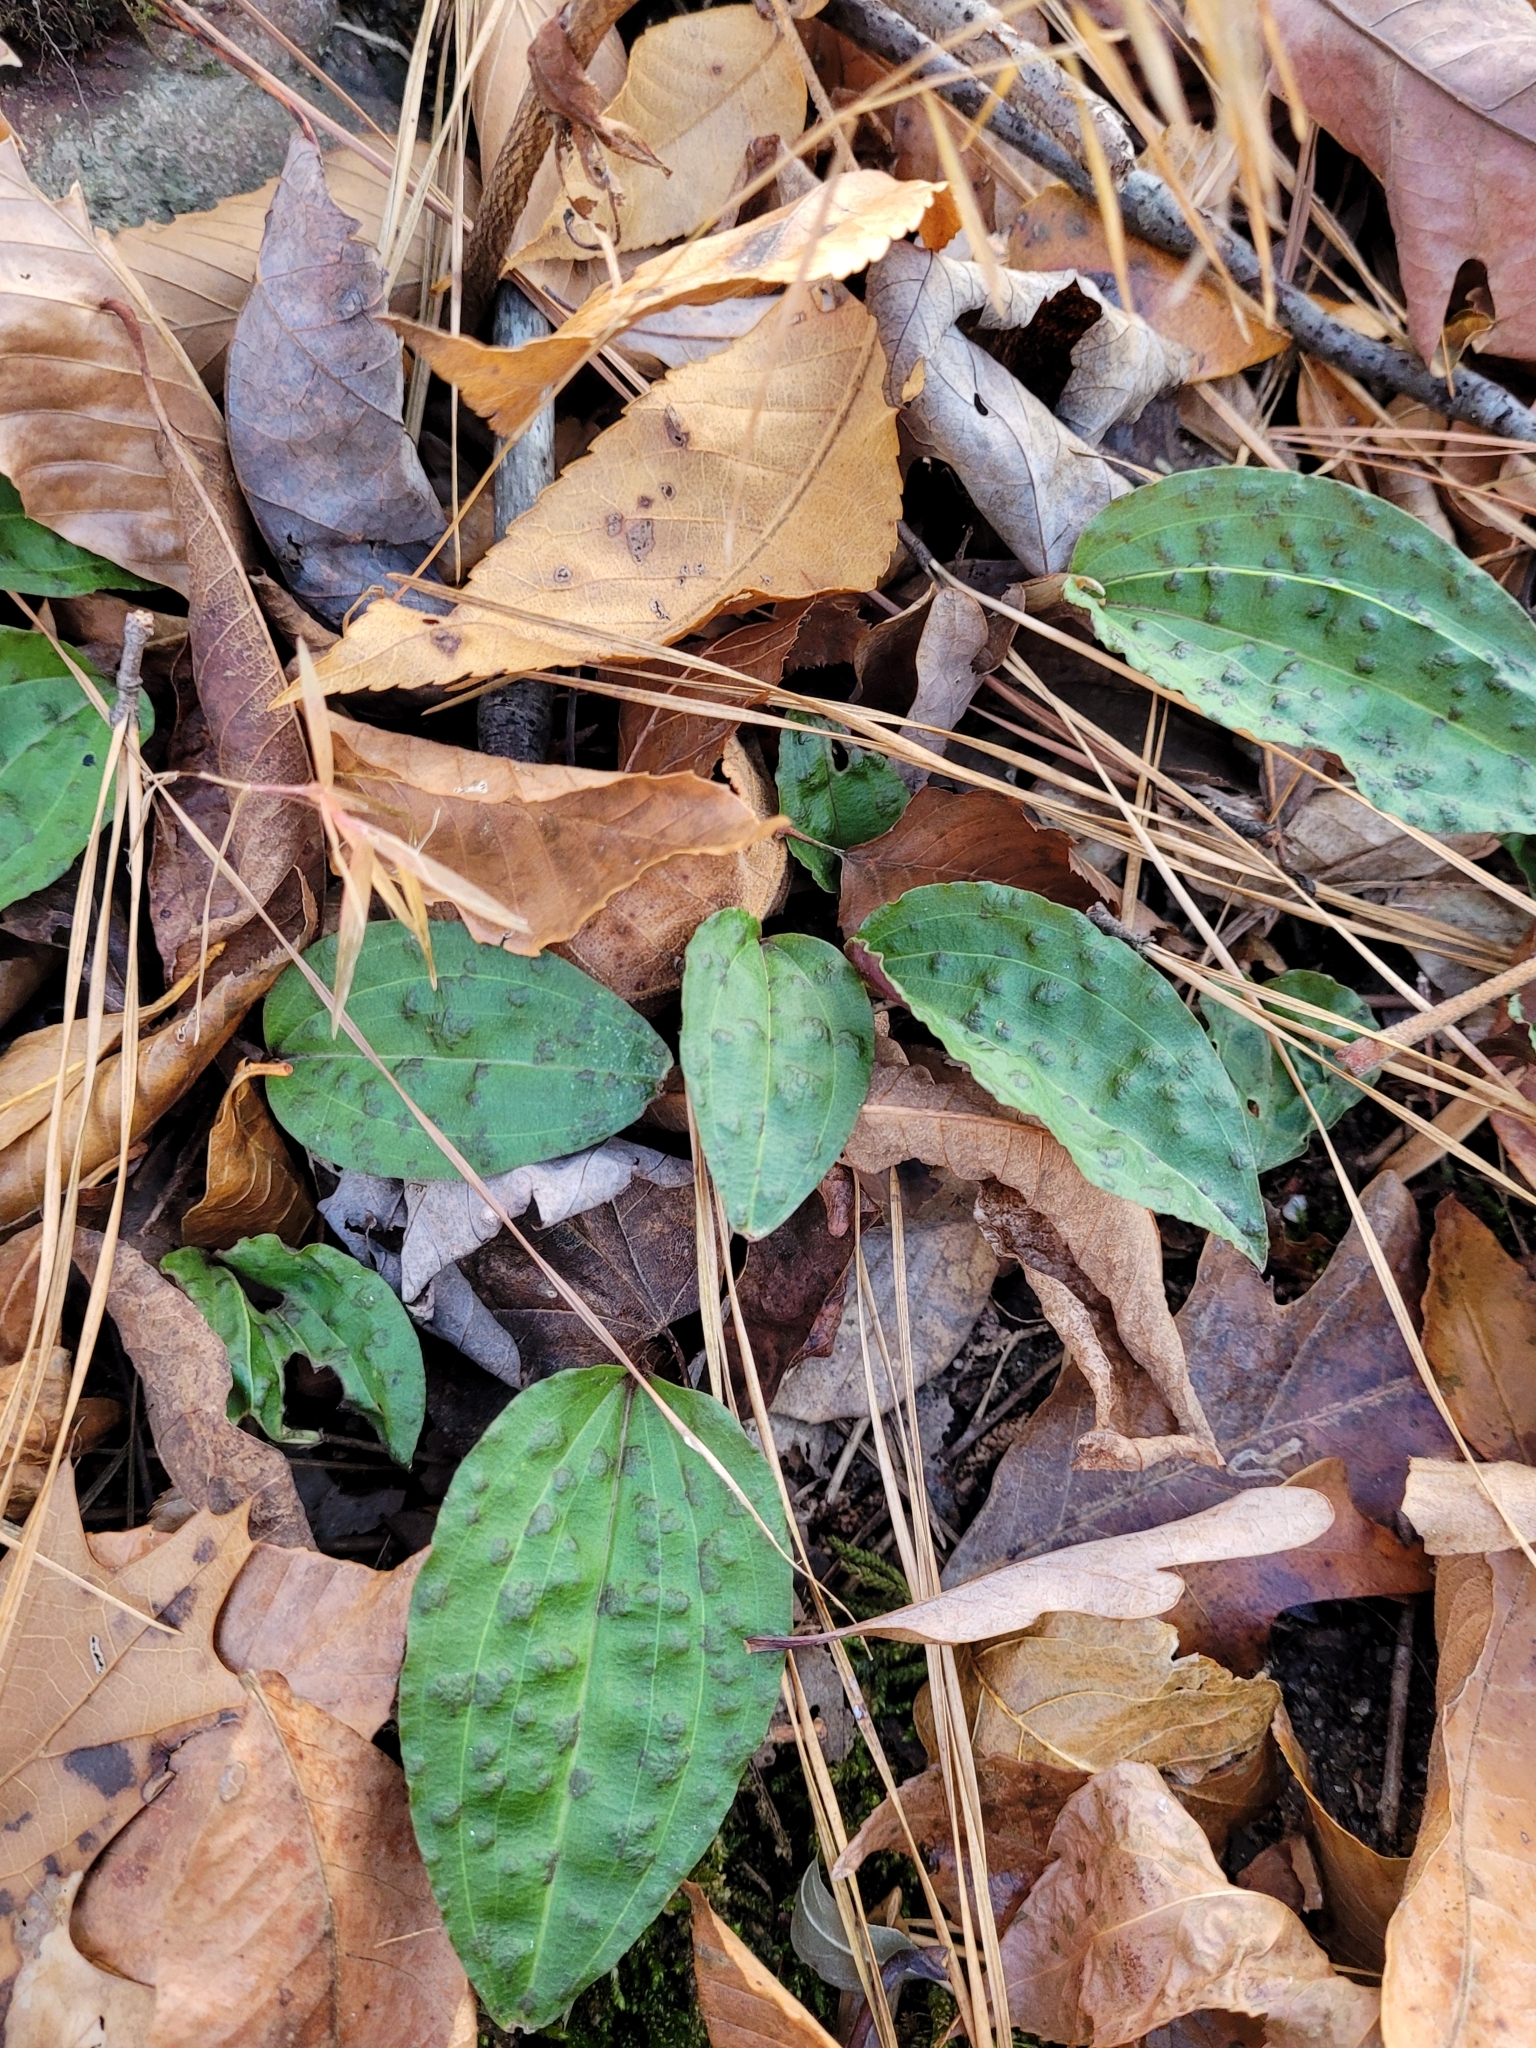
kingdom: Plantae
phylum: Tracheophyta
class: Liliopsida
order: Asparagales
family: Orchidaceae
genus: Tipularia
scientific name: Tipularia discolor
